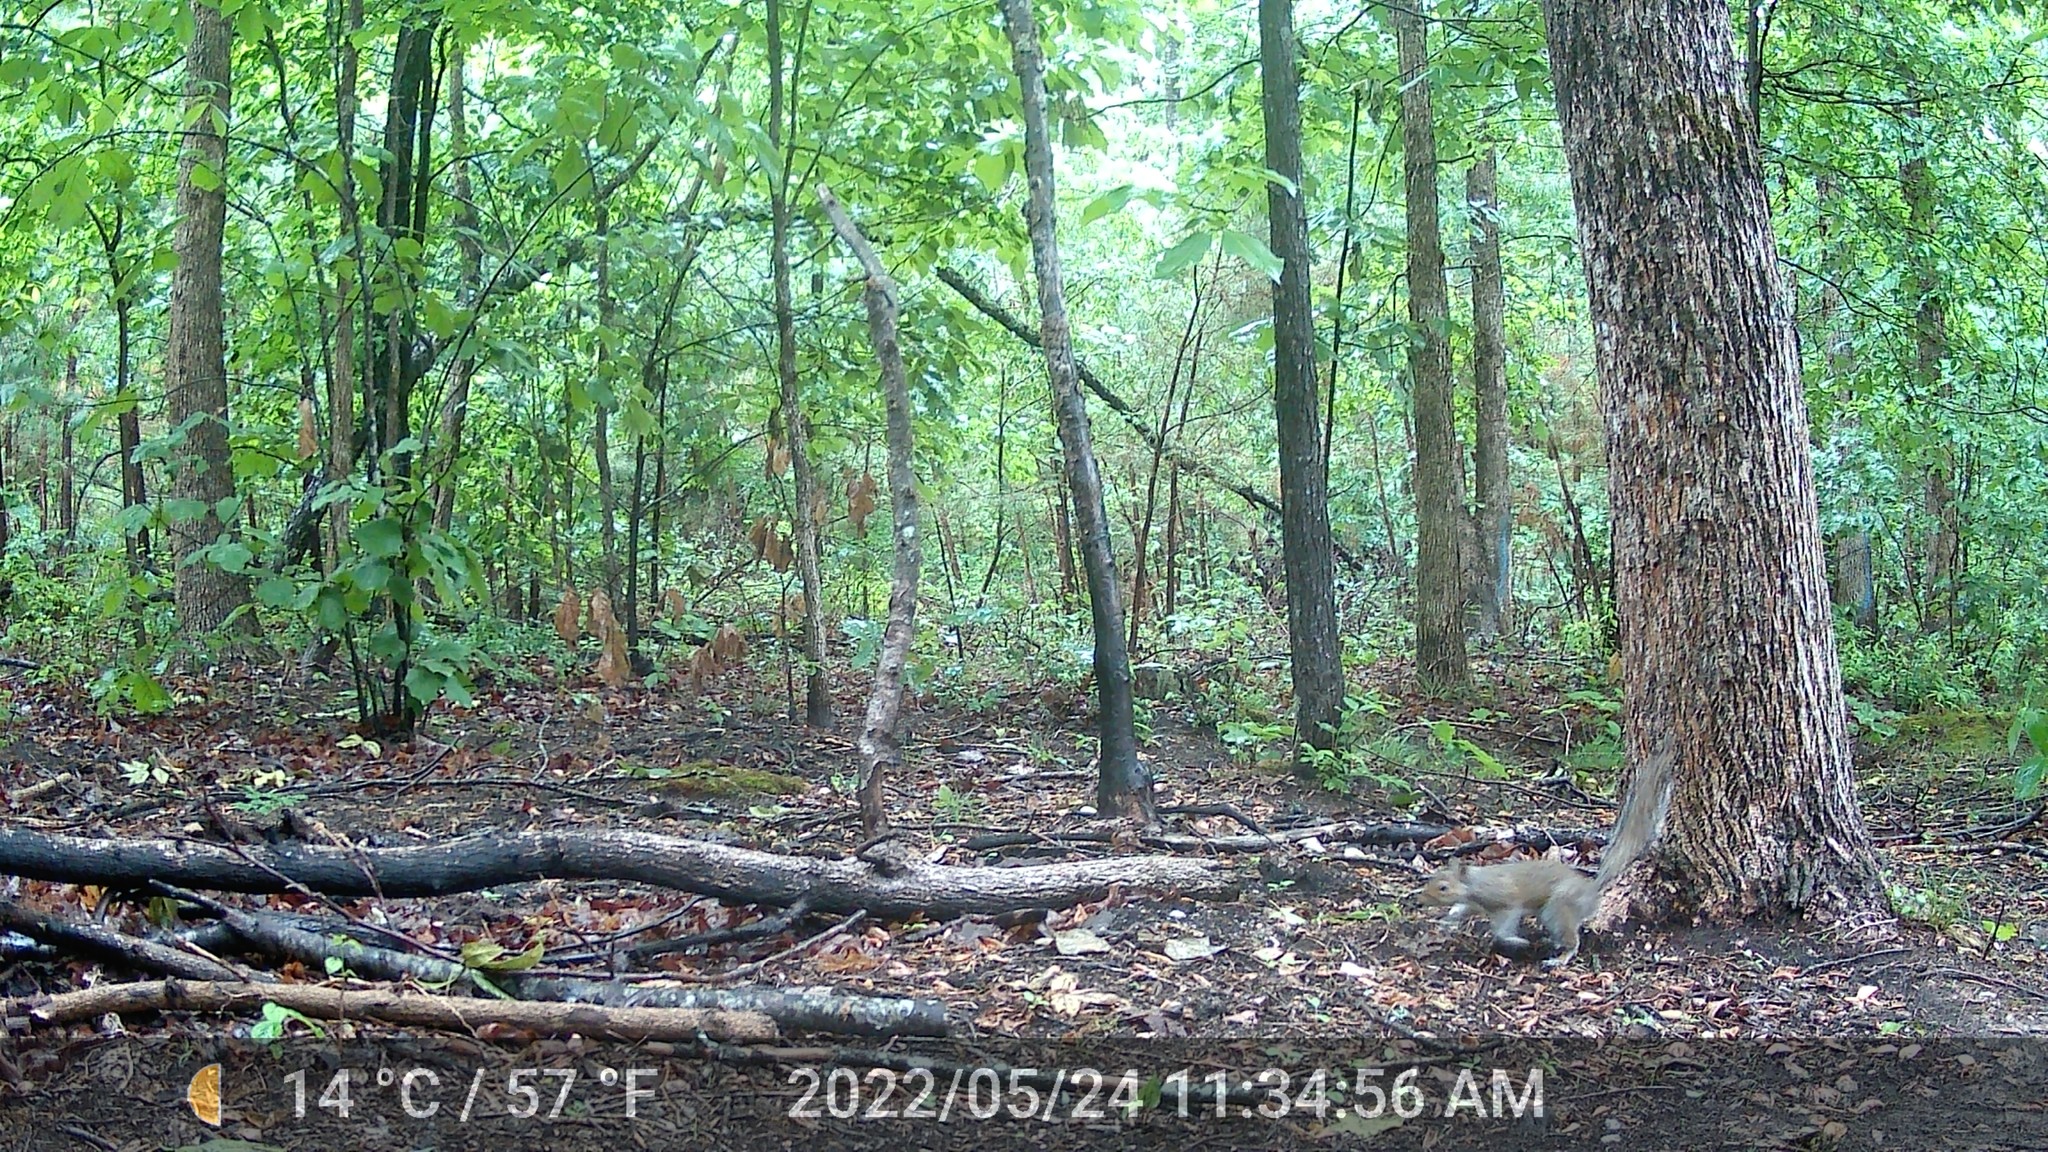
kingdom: Animalia
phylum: Chordata
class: Mammalia
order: Rodentia
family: Sciuridae
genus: Sciurus
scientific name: Sciurus carolinensis
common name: Eastern gray squirrel
